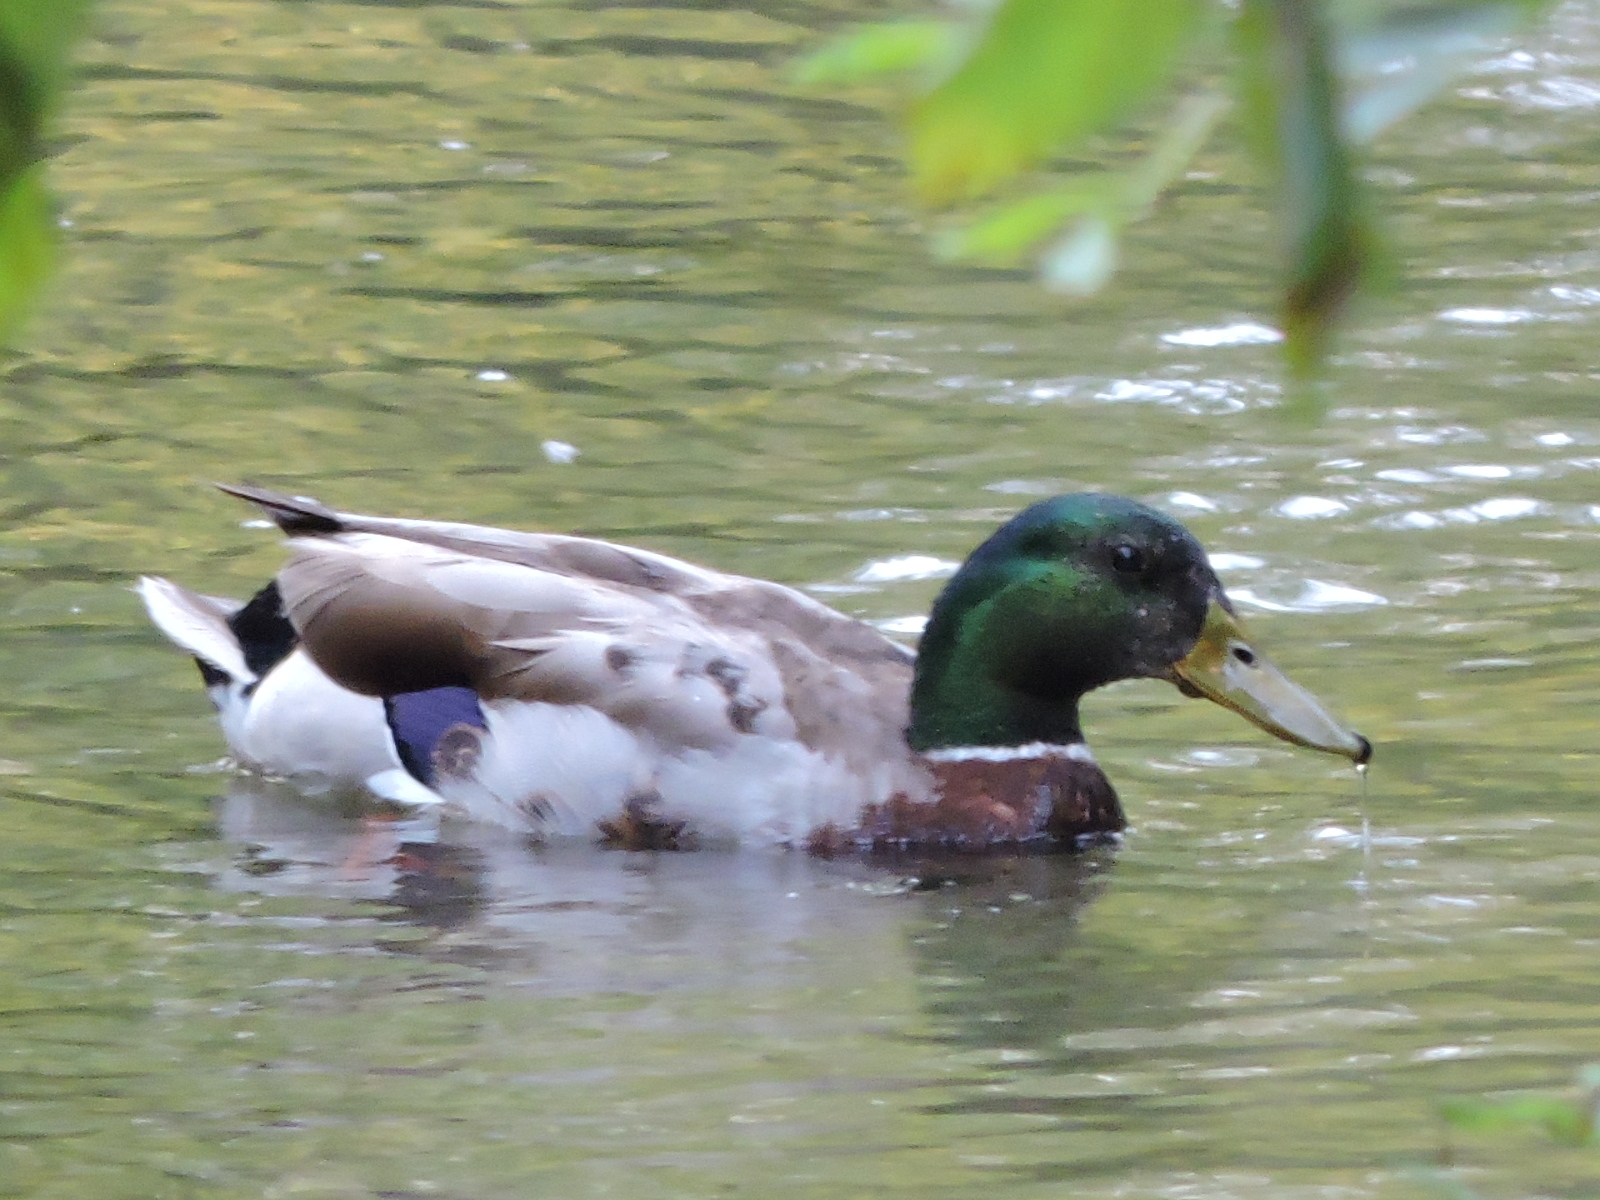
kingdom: Animalia
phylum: Chordata
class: Aves
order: Anseriformes
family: Anatidae
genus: Anas
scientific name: Anas platyrhynchos
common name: Mallard
